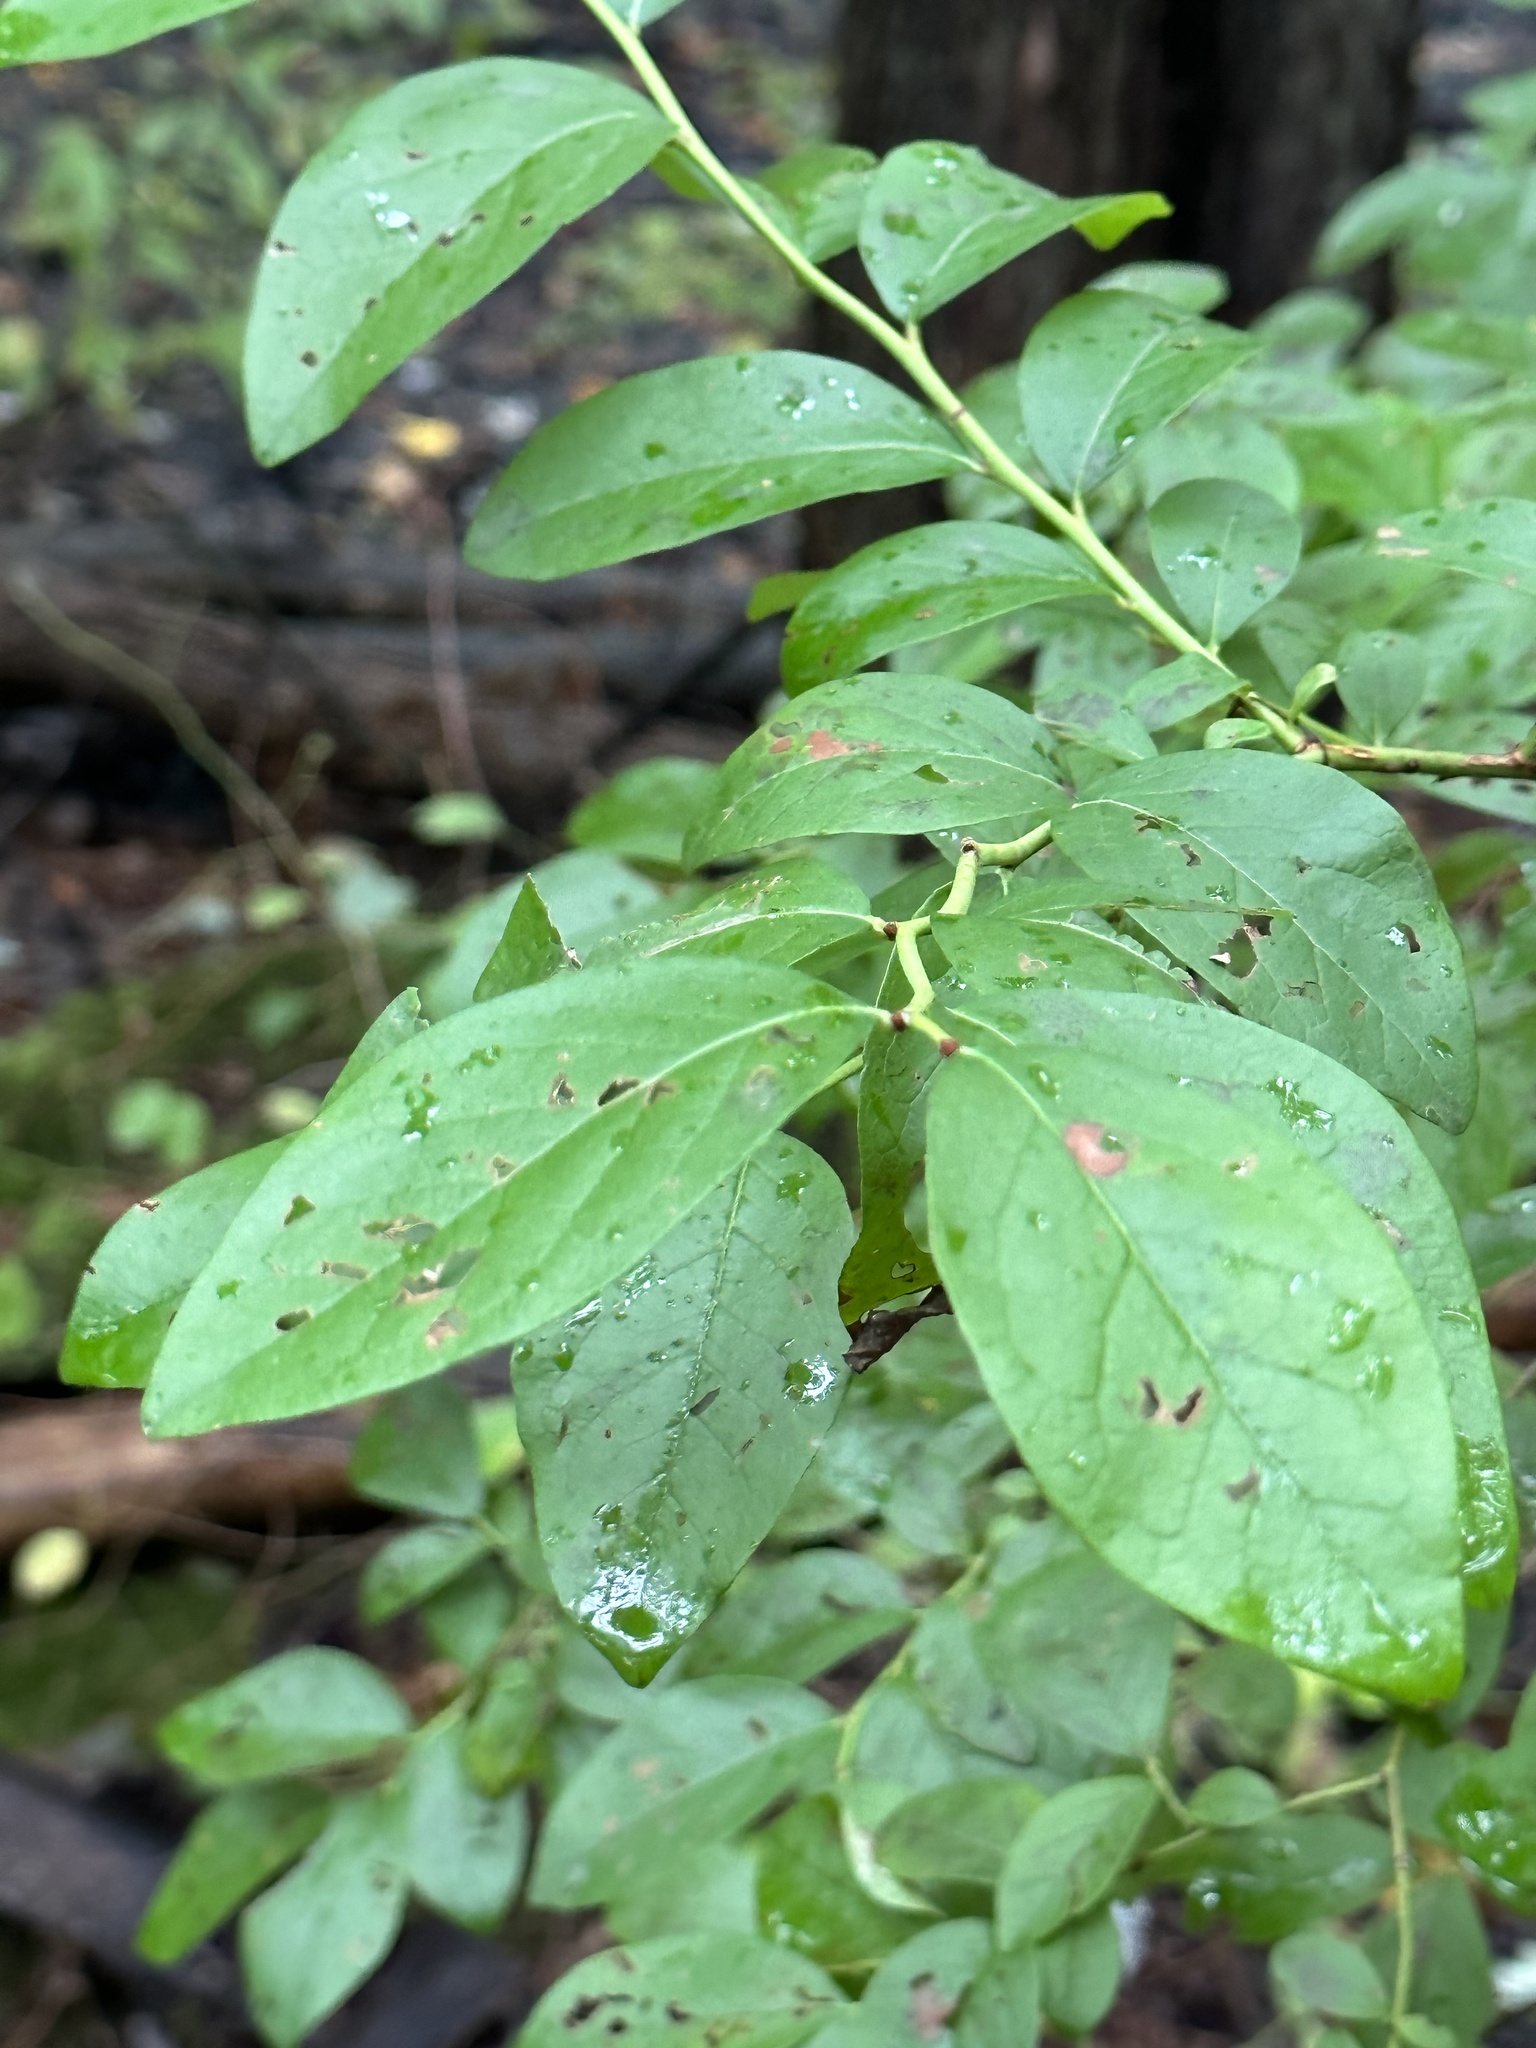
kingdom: Plantae
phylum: Tracheophyta
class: Magnoliopsida
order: Ericales
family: Ericaceae
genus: Eubotrys
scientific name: Eubotrys racemosa
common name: Fetterbush
